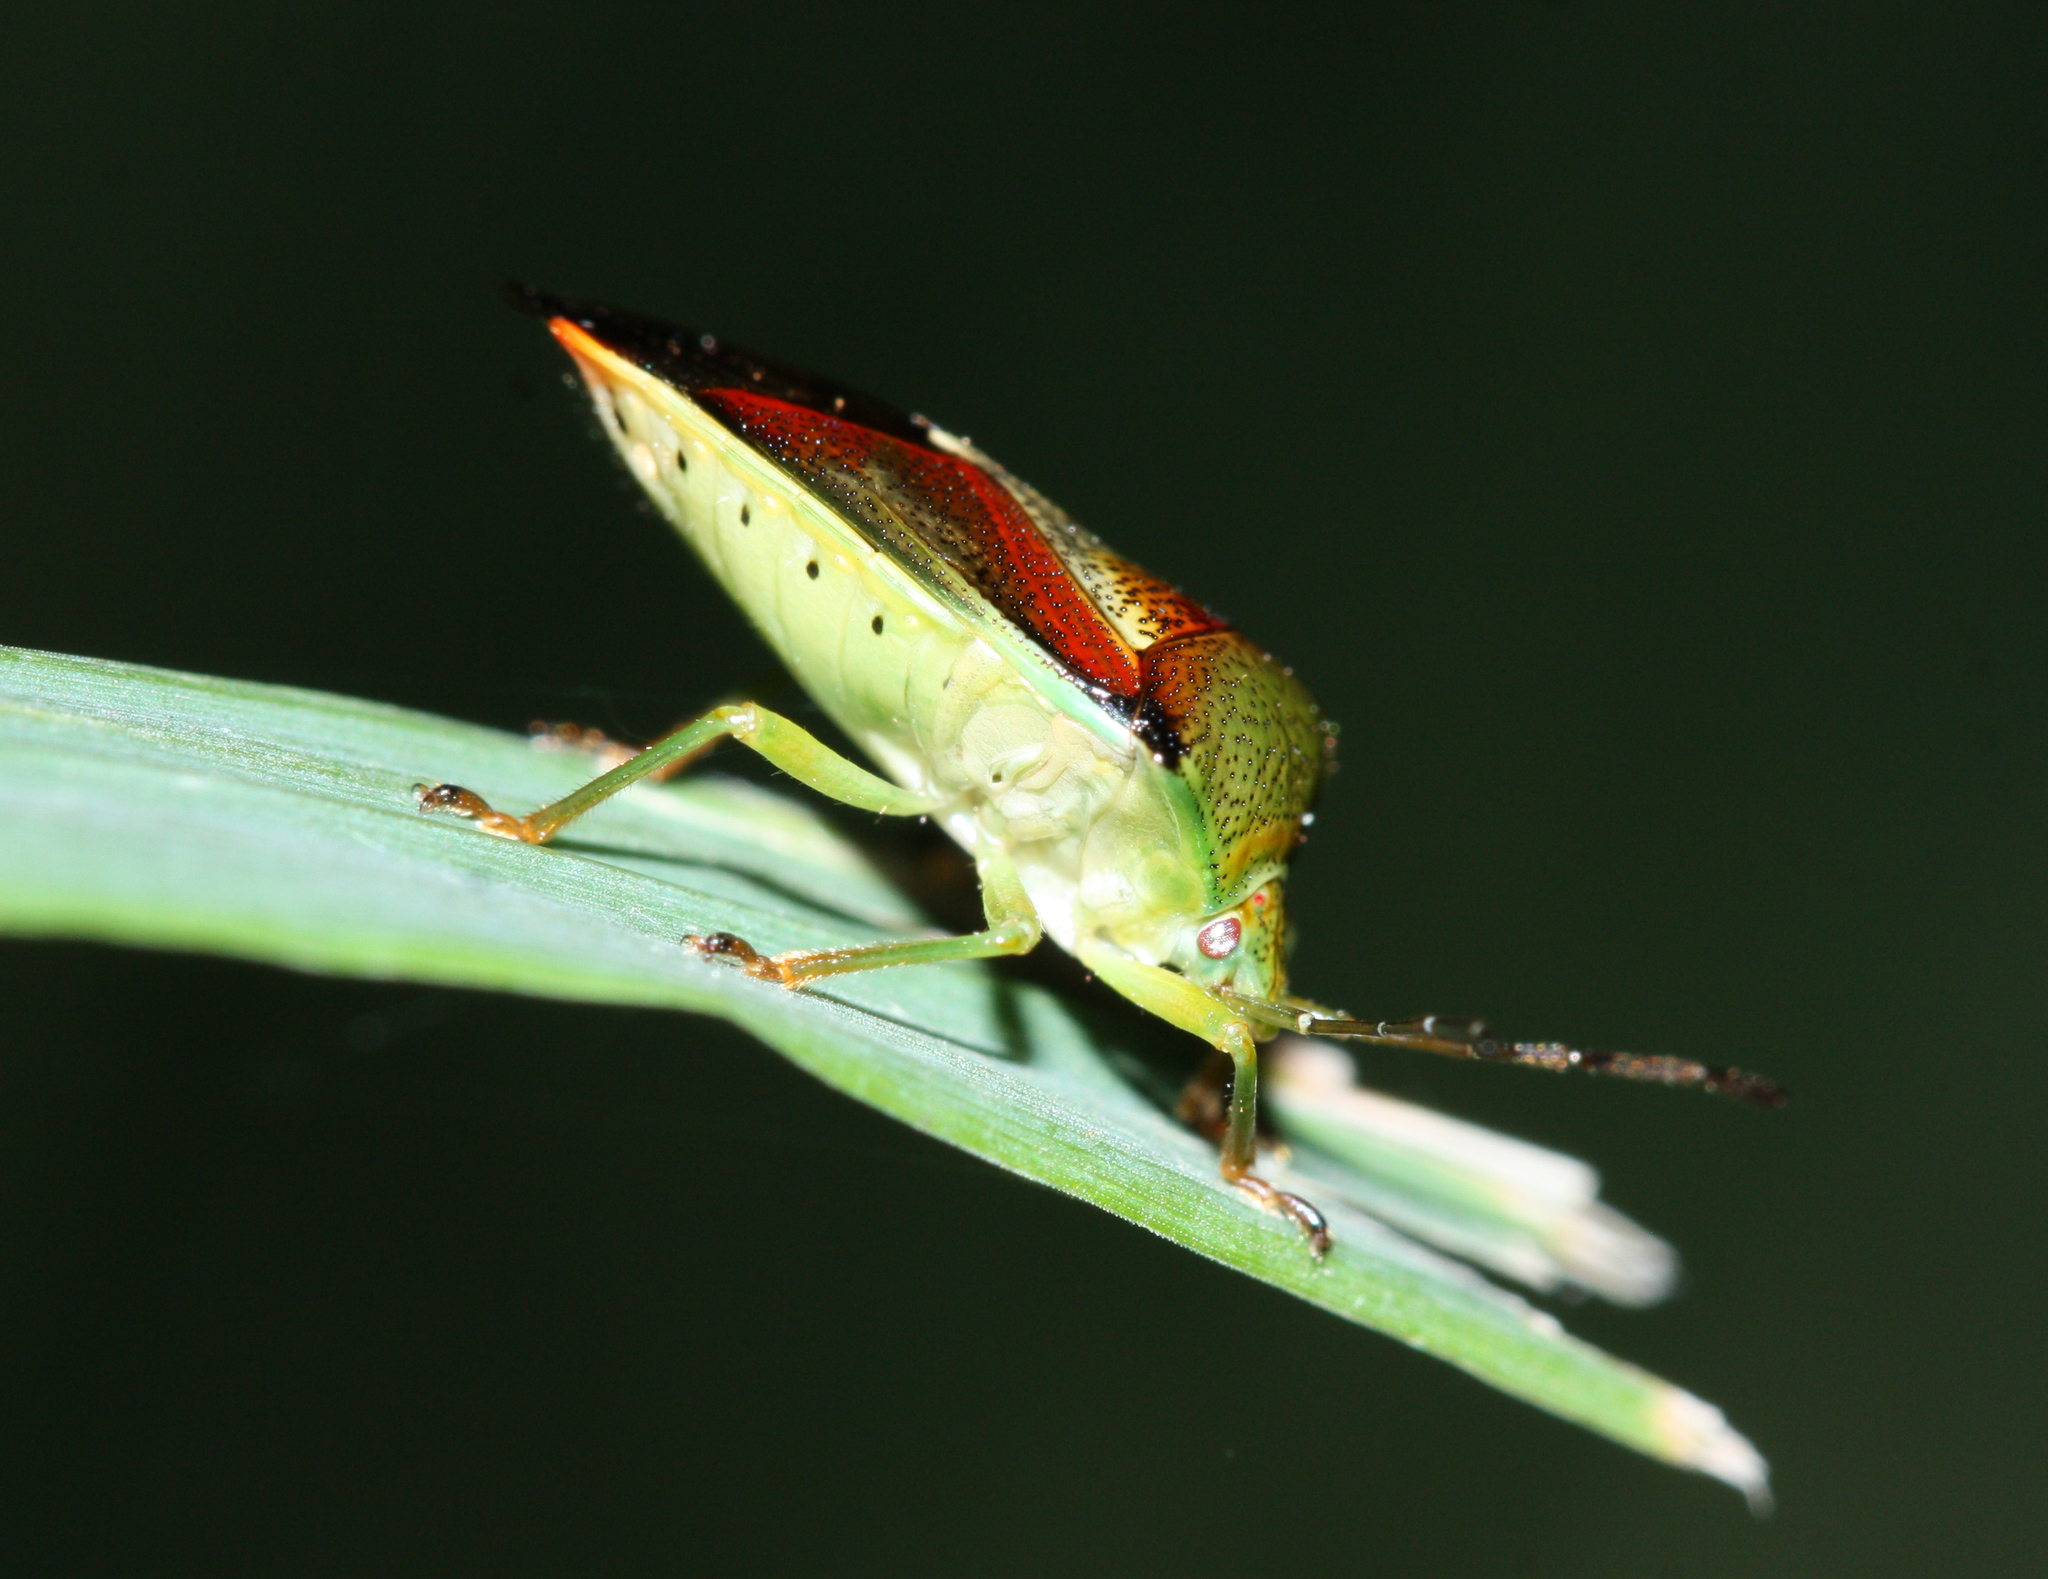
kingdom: Animalia
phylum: Arthropoda
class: Insecta
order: Hemiptera
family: Acanthosomatidae
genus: Elasmostethus
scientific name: Elasmostethus interstinctus
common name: Birch shieldbug
